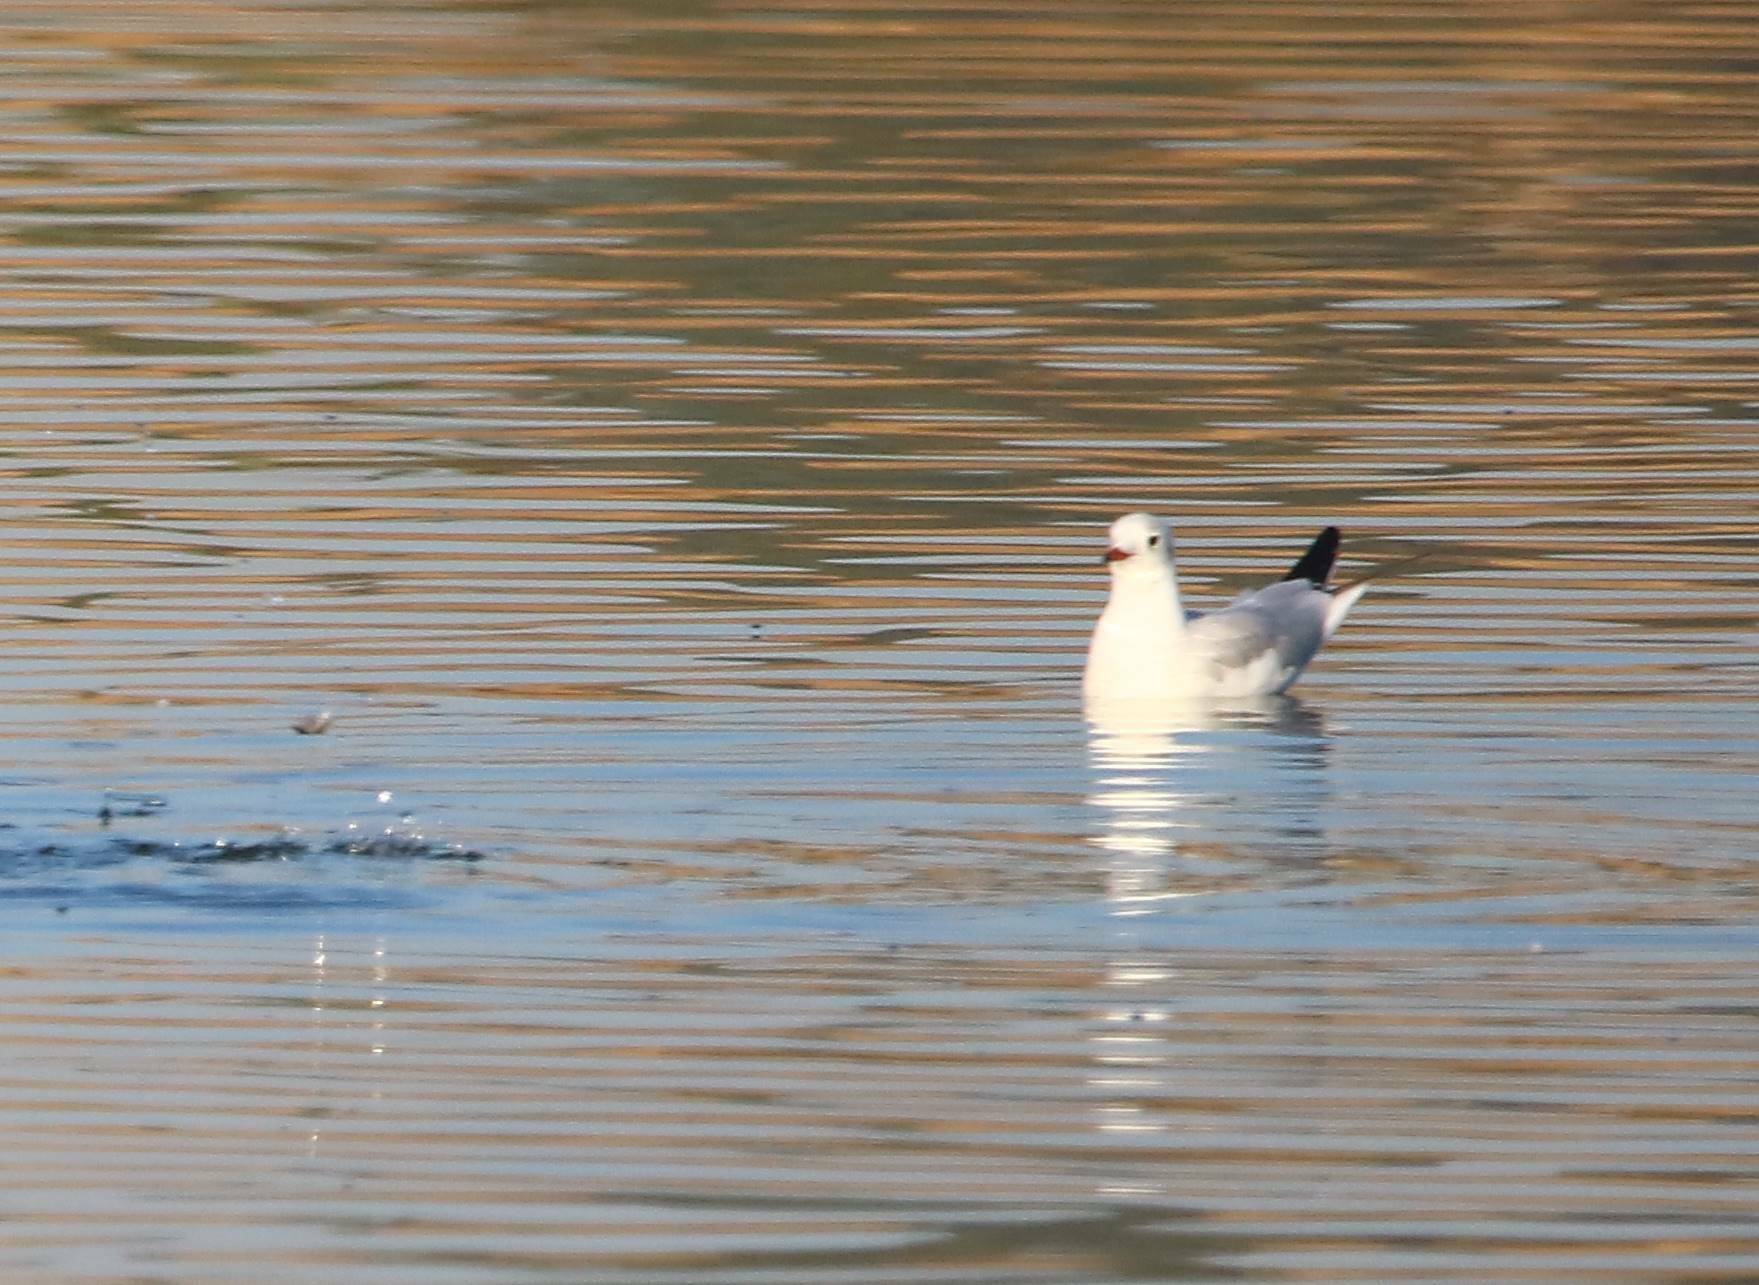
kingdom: Animalia
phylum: Chordata
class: Aves
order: Charadriiformes
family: Laridae
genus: Chroicocephalus
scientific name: Chroicocephalus ridibundus
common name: Black-headed gull
